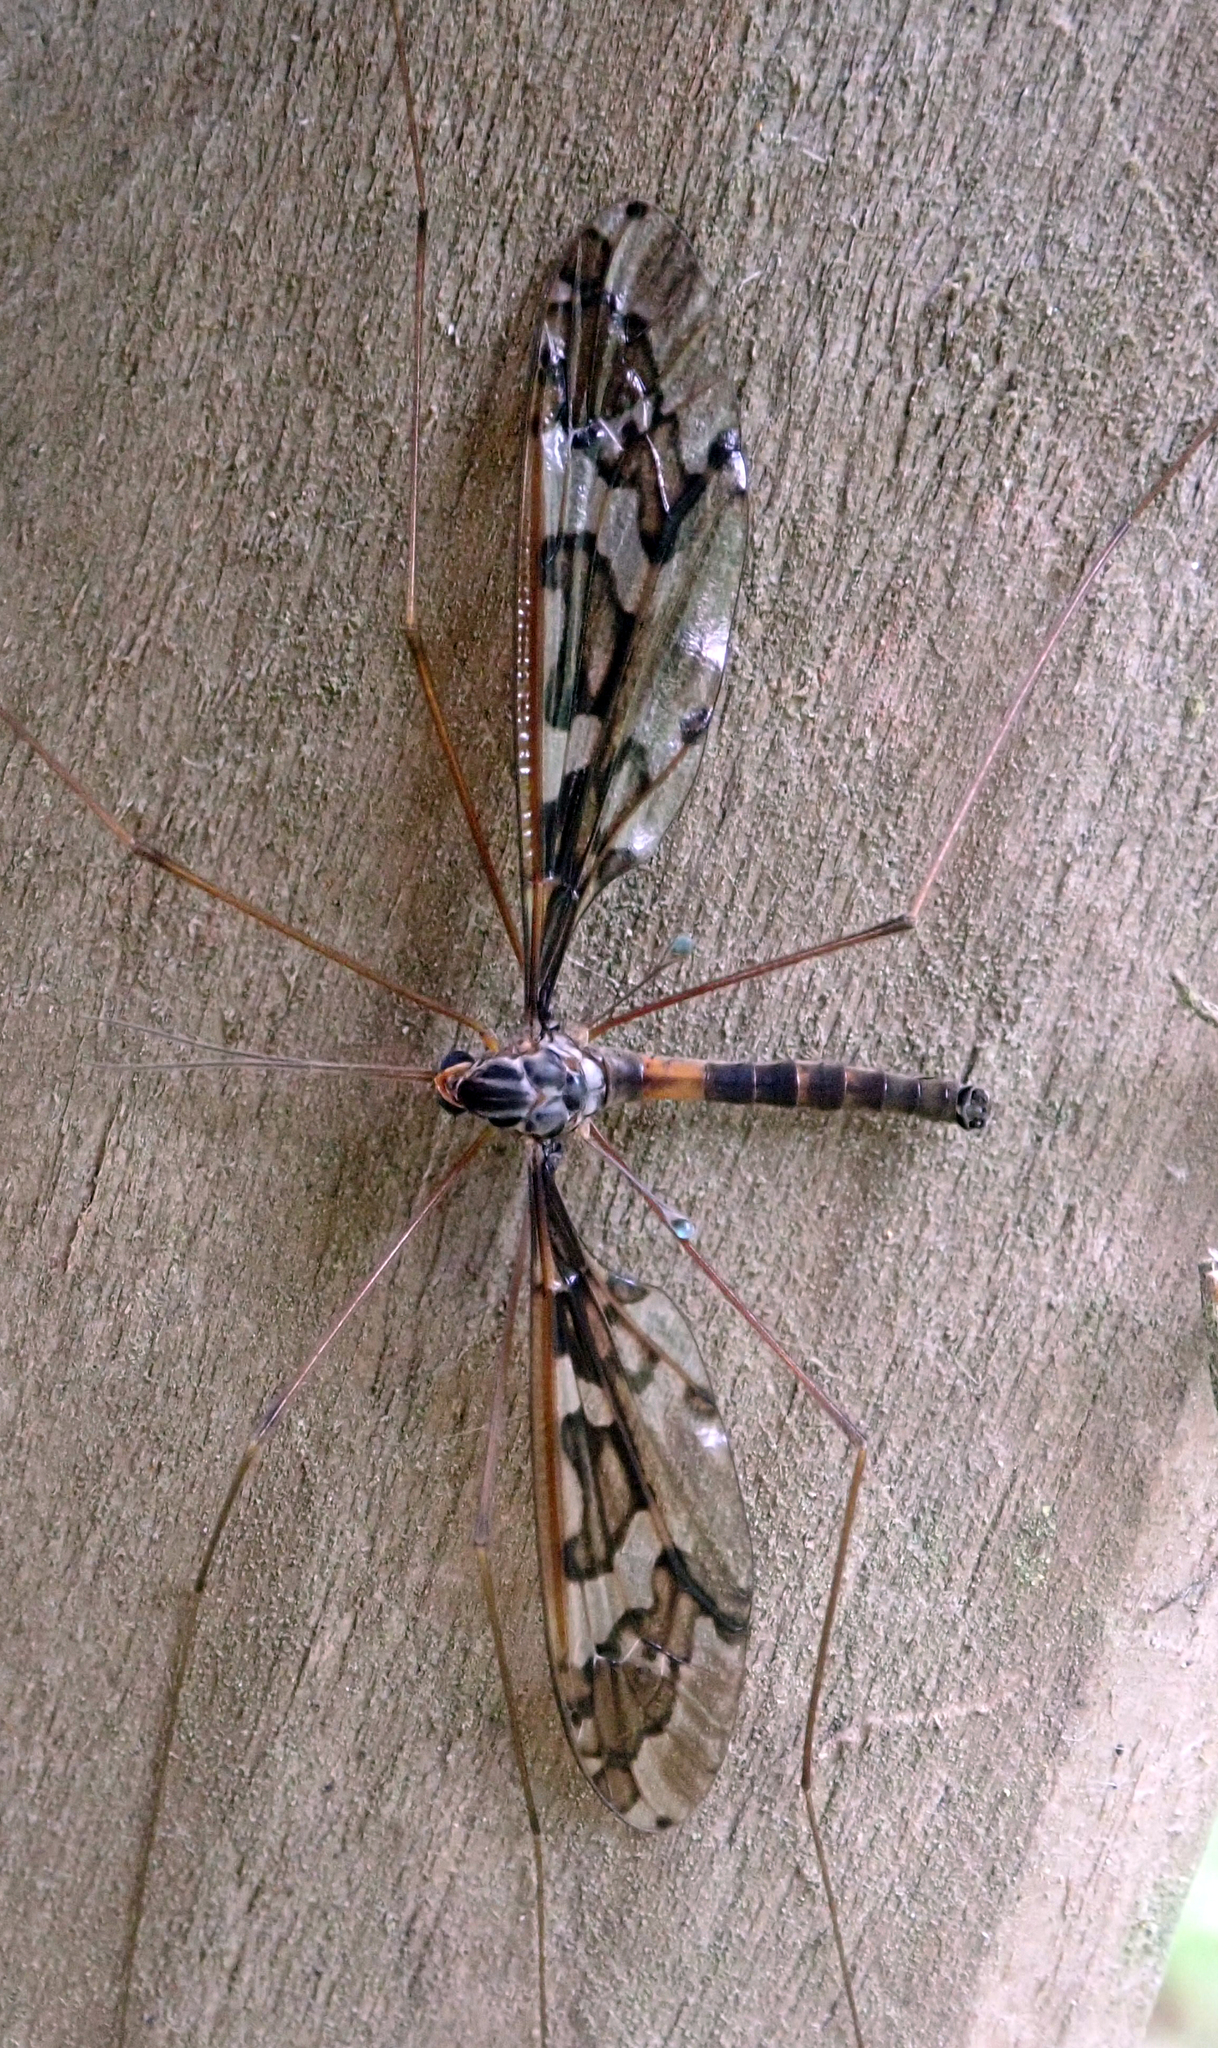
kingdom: Animalia
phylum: Arthropoda
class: Insecta
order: Diptera
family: Tipulidae
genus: Leptotarsus
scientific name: Leptotarsus binotatus
